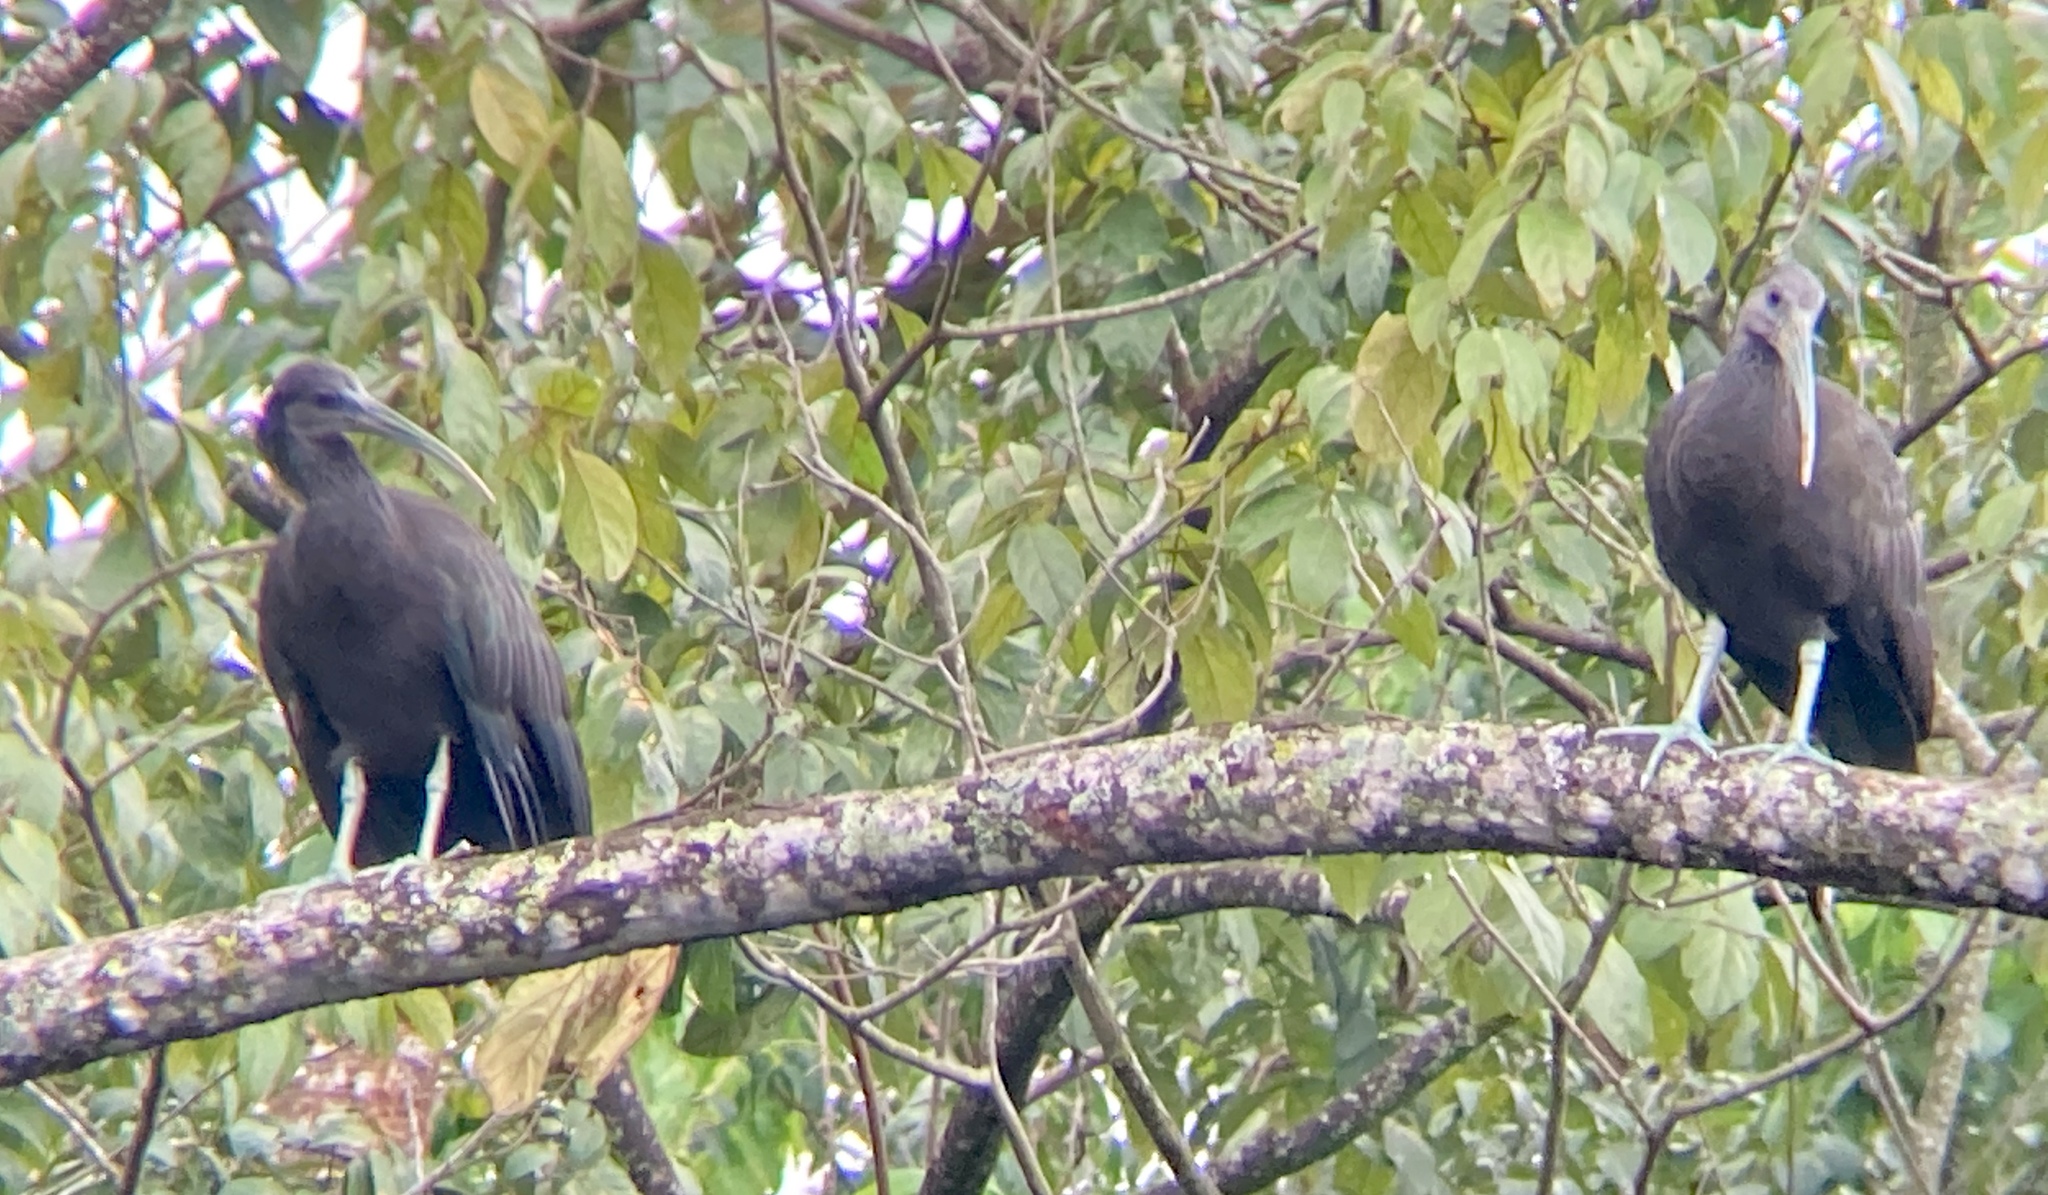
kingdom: Animalia
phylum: Chordata
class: Aves
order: Pelecaniformes
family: Threskiornithidae
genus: Mesembrinibis
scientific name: Mesembrinibis cayennensis
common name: Green ibis
